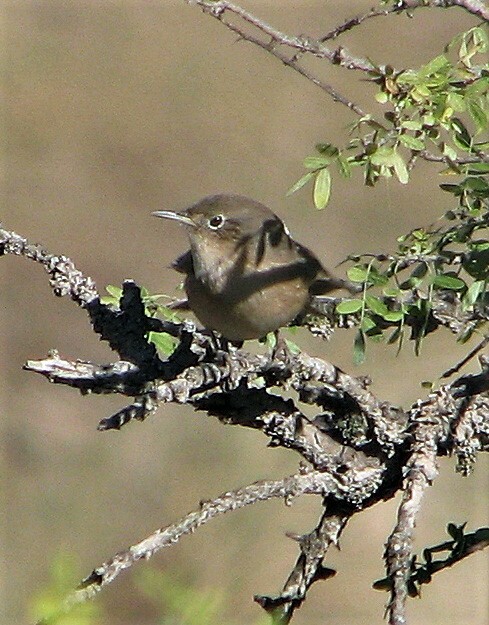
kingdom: Animalia
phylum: Chordata
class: Aves
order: Passeriformes
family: Troglodytidae
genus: Troglodytes
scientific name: Troglodytes aedon
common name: House wren
